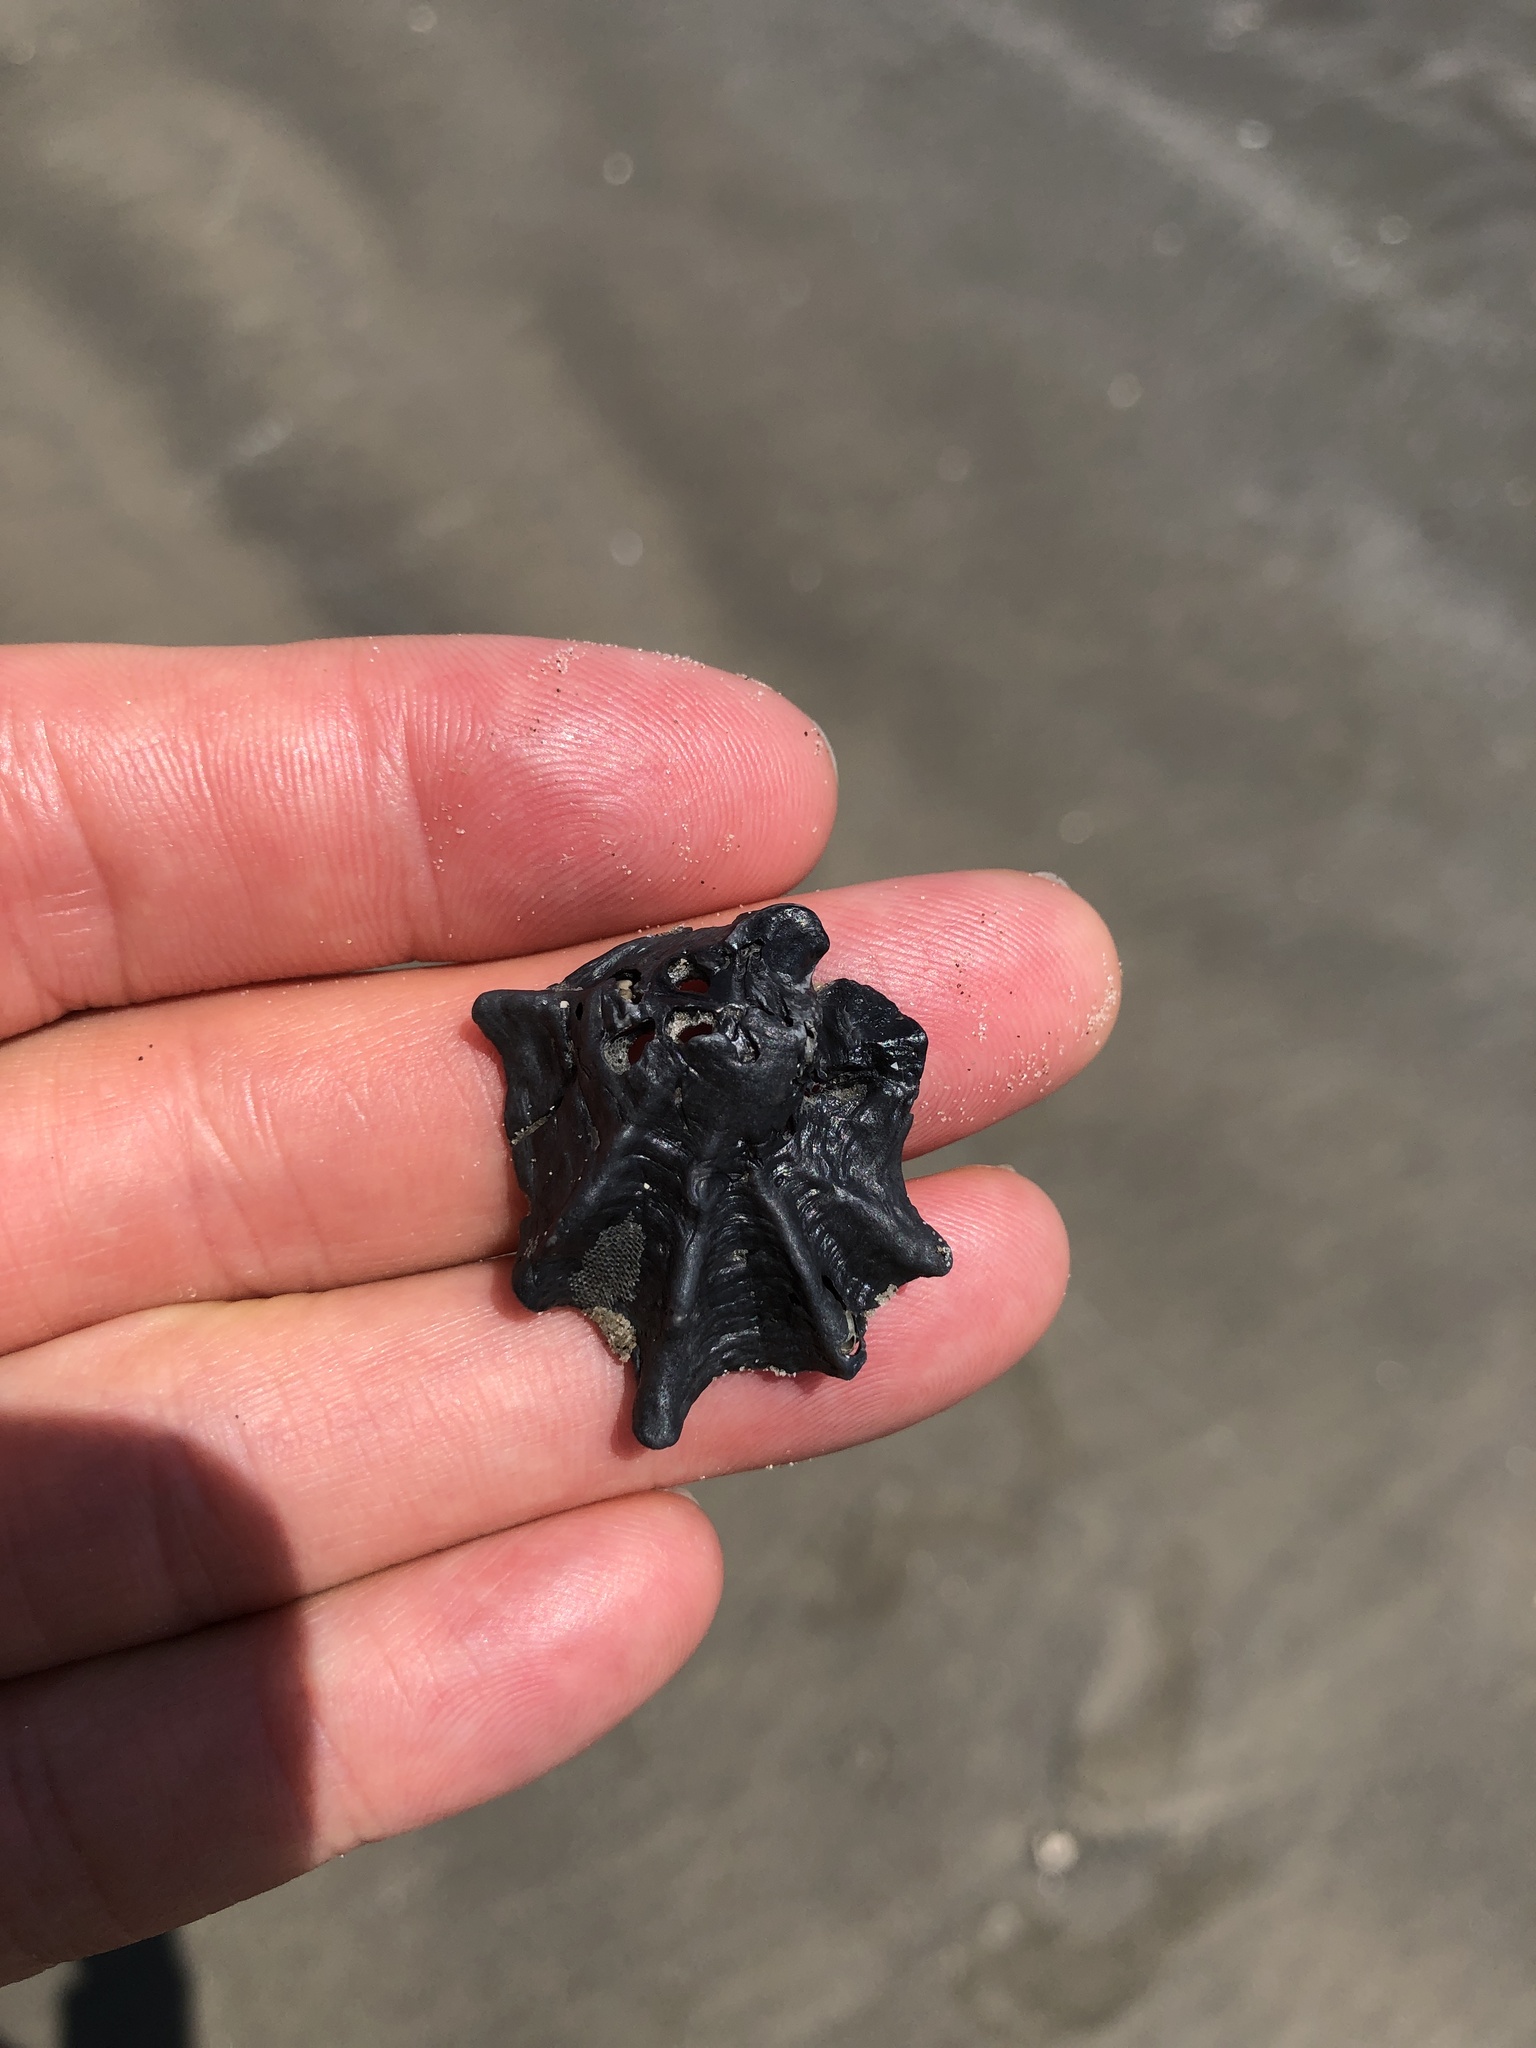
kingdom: Animalia
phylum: Mollusca
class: Bivalvia
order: Ostreida
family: Ostreidae
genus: Crassostrea
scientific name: Crassostrea virginica
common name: American oyster
